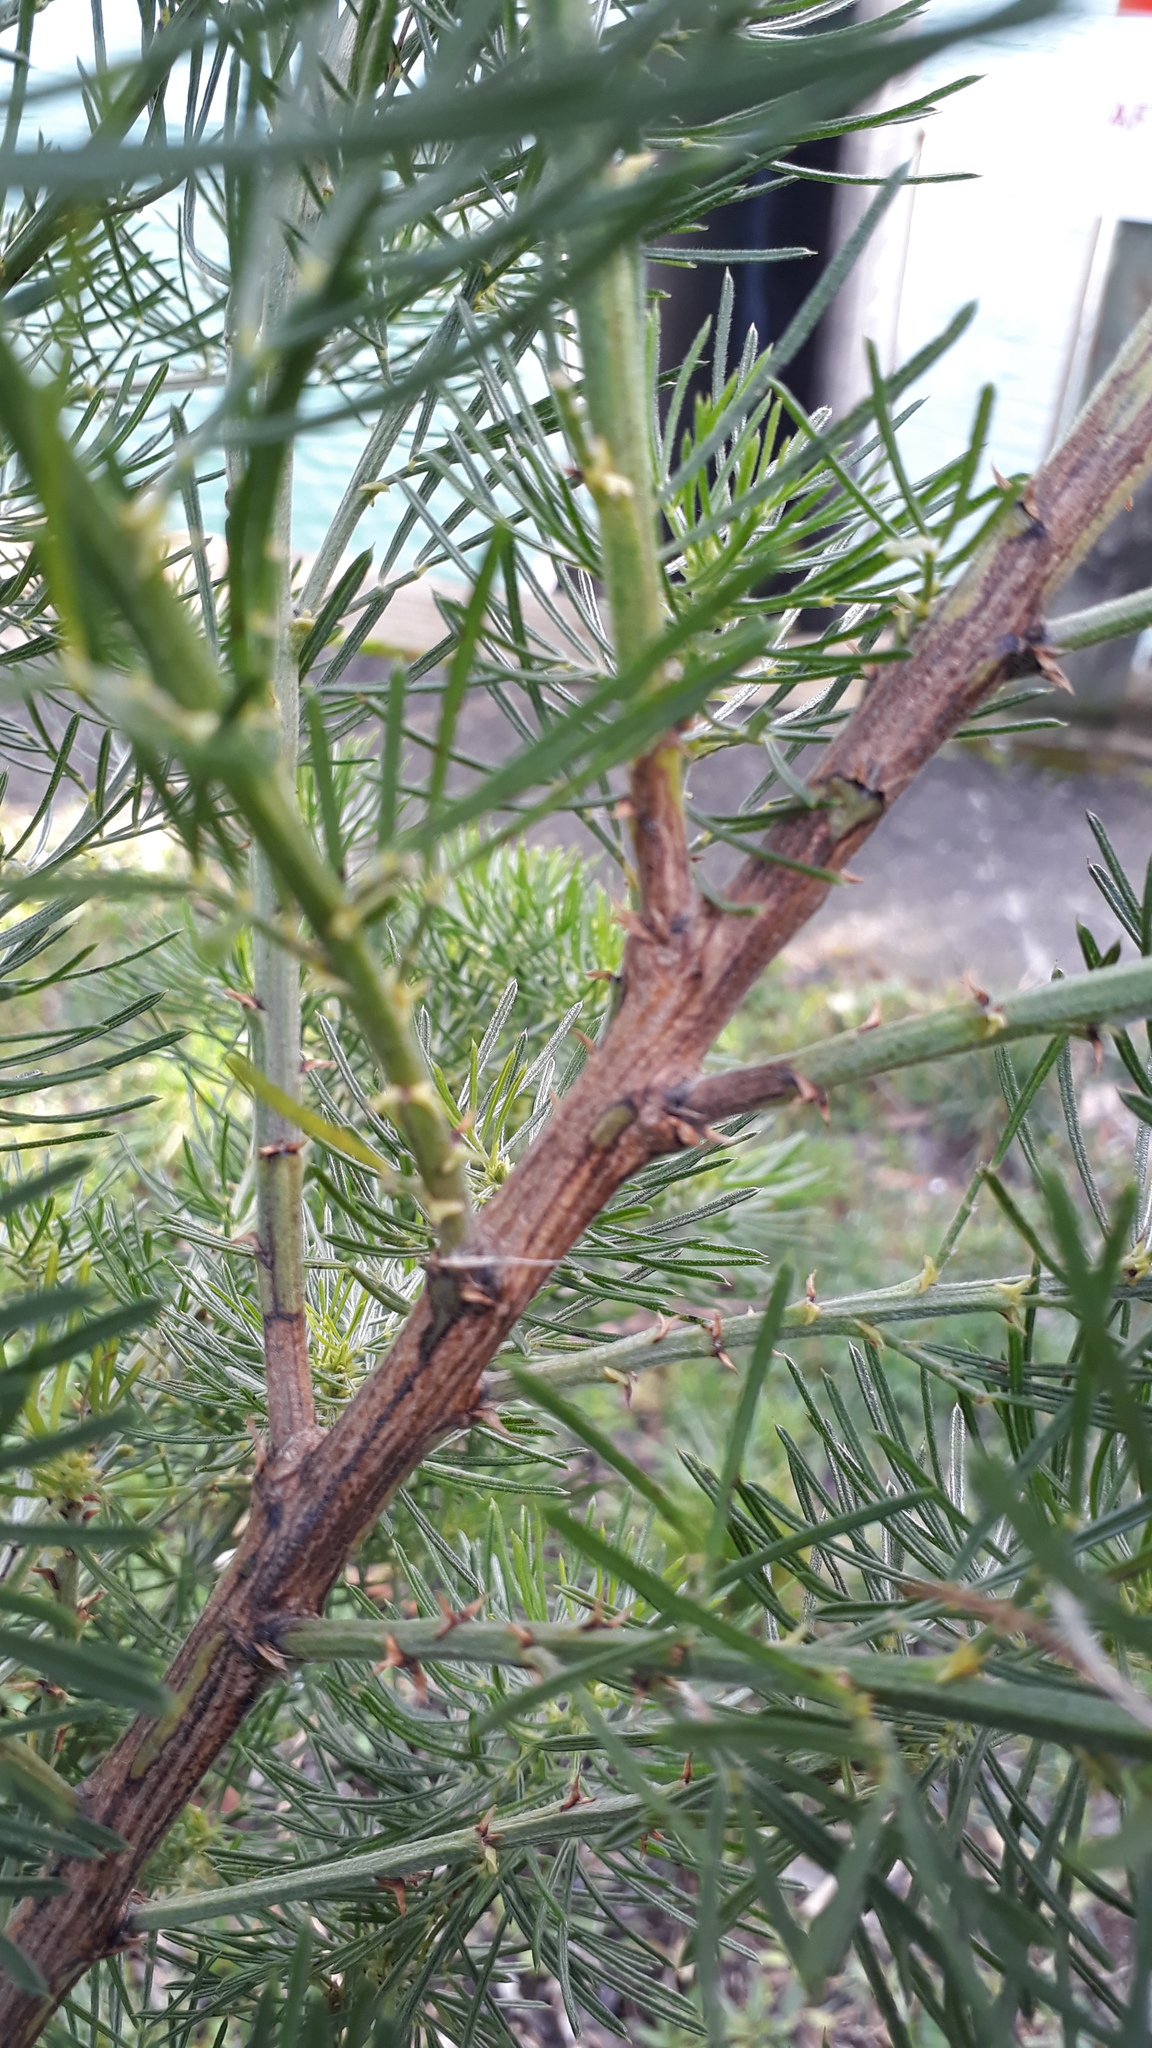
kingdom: Plantae
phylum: Tracheophyta
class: Magnoliopsida
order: Fabales
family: Fabaceae
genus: Psoralea
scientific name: Psoralea pinnata
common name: African scurfpea
